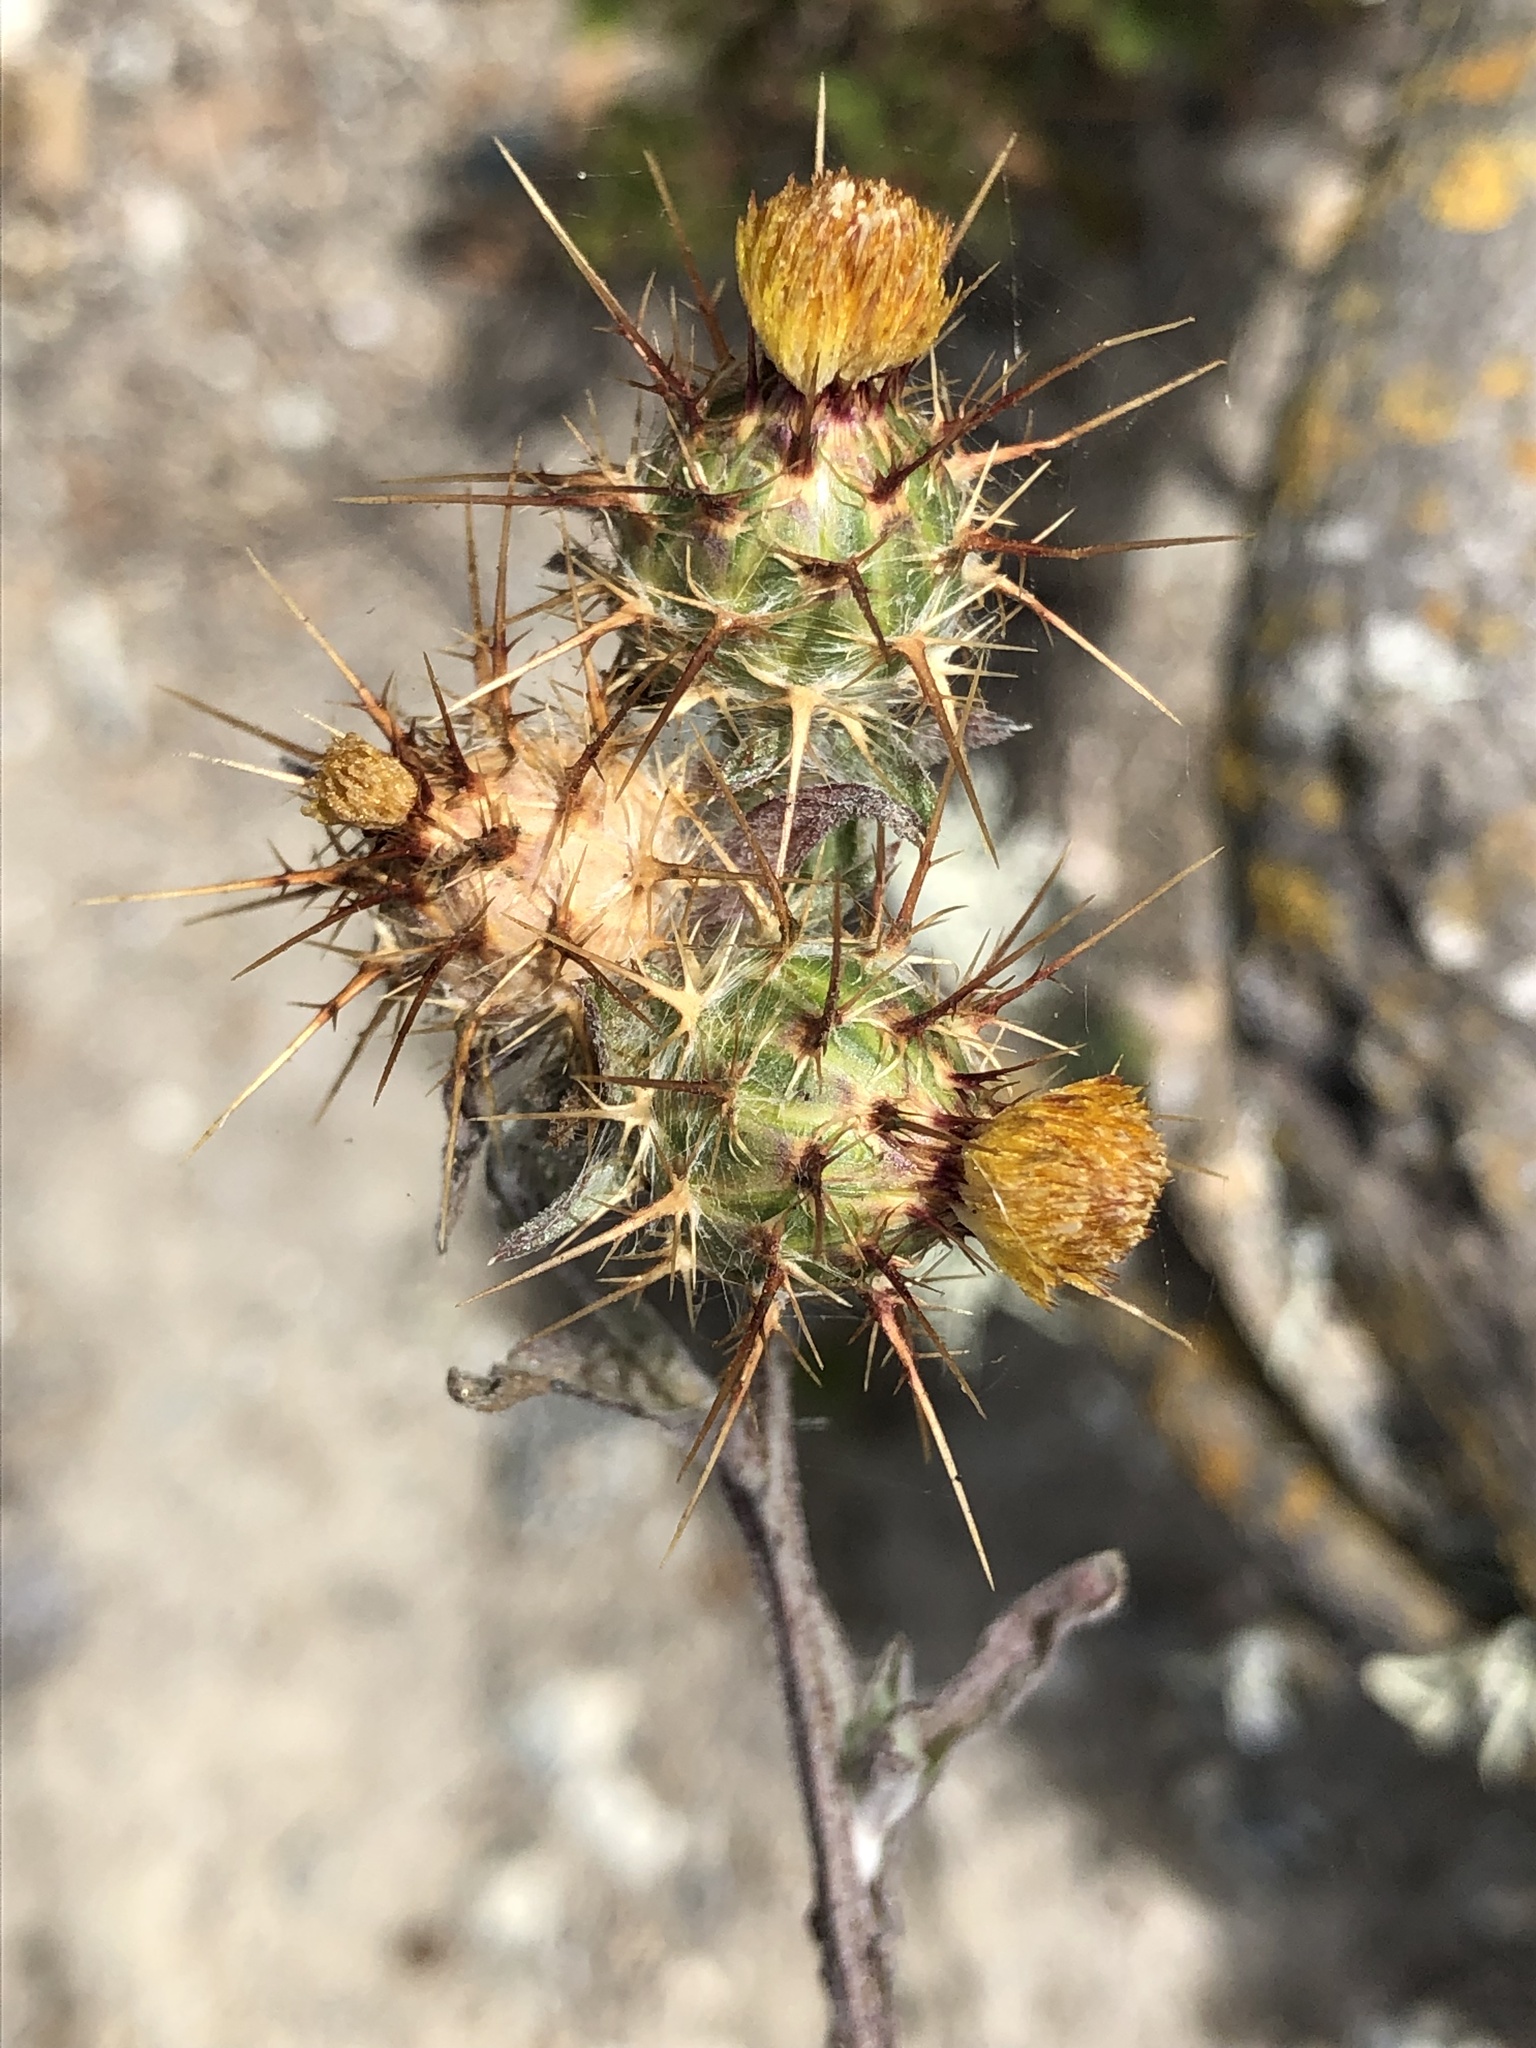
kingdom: Plantae
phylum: Tracheophyta
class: Magnoliopsida
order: Asterales
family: Asteraceae
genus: Centaurea
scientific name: Centaurea melitensis
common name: Maltese star-thistle
